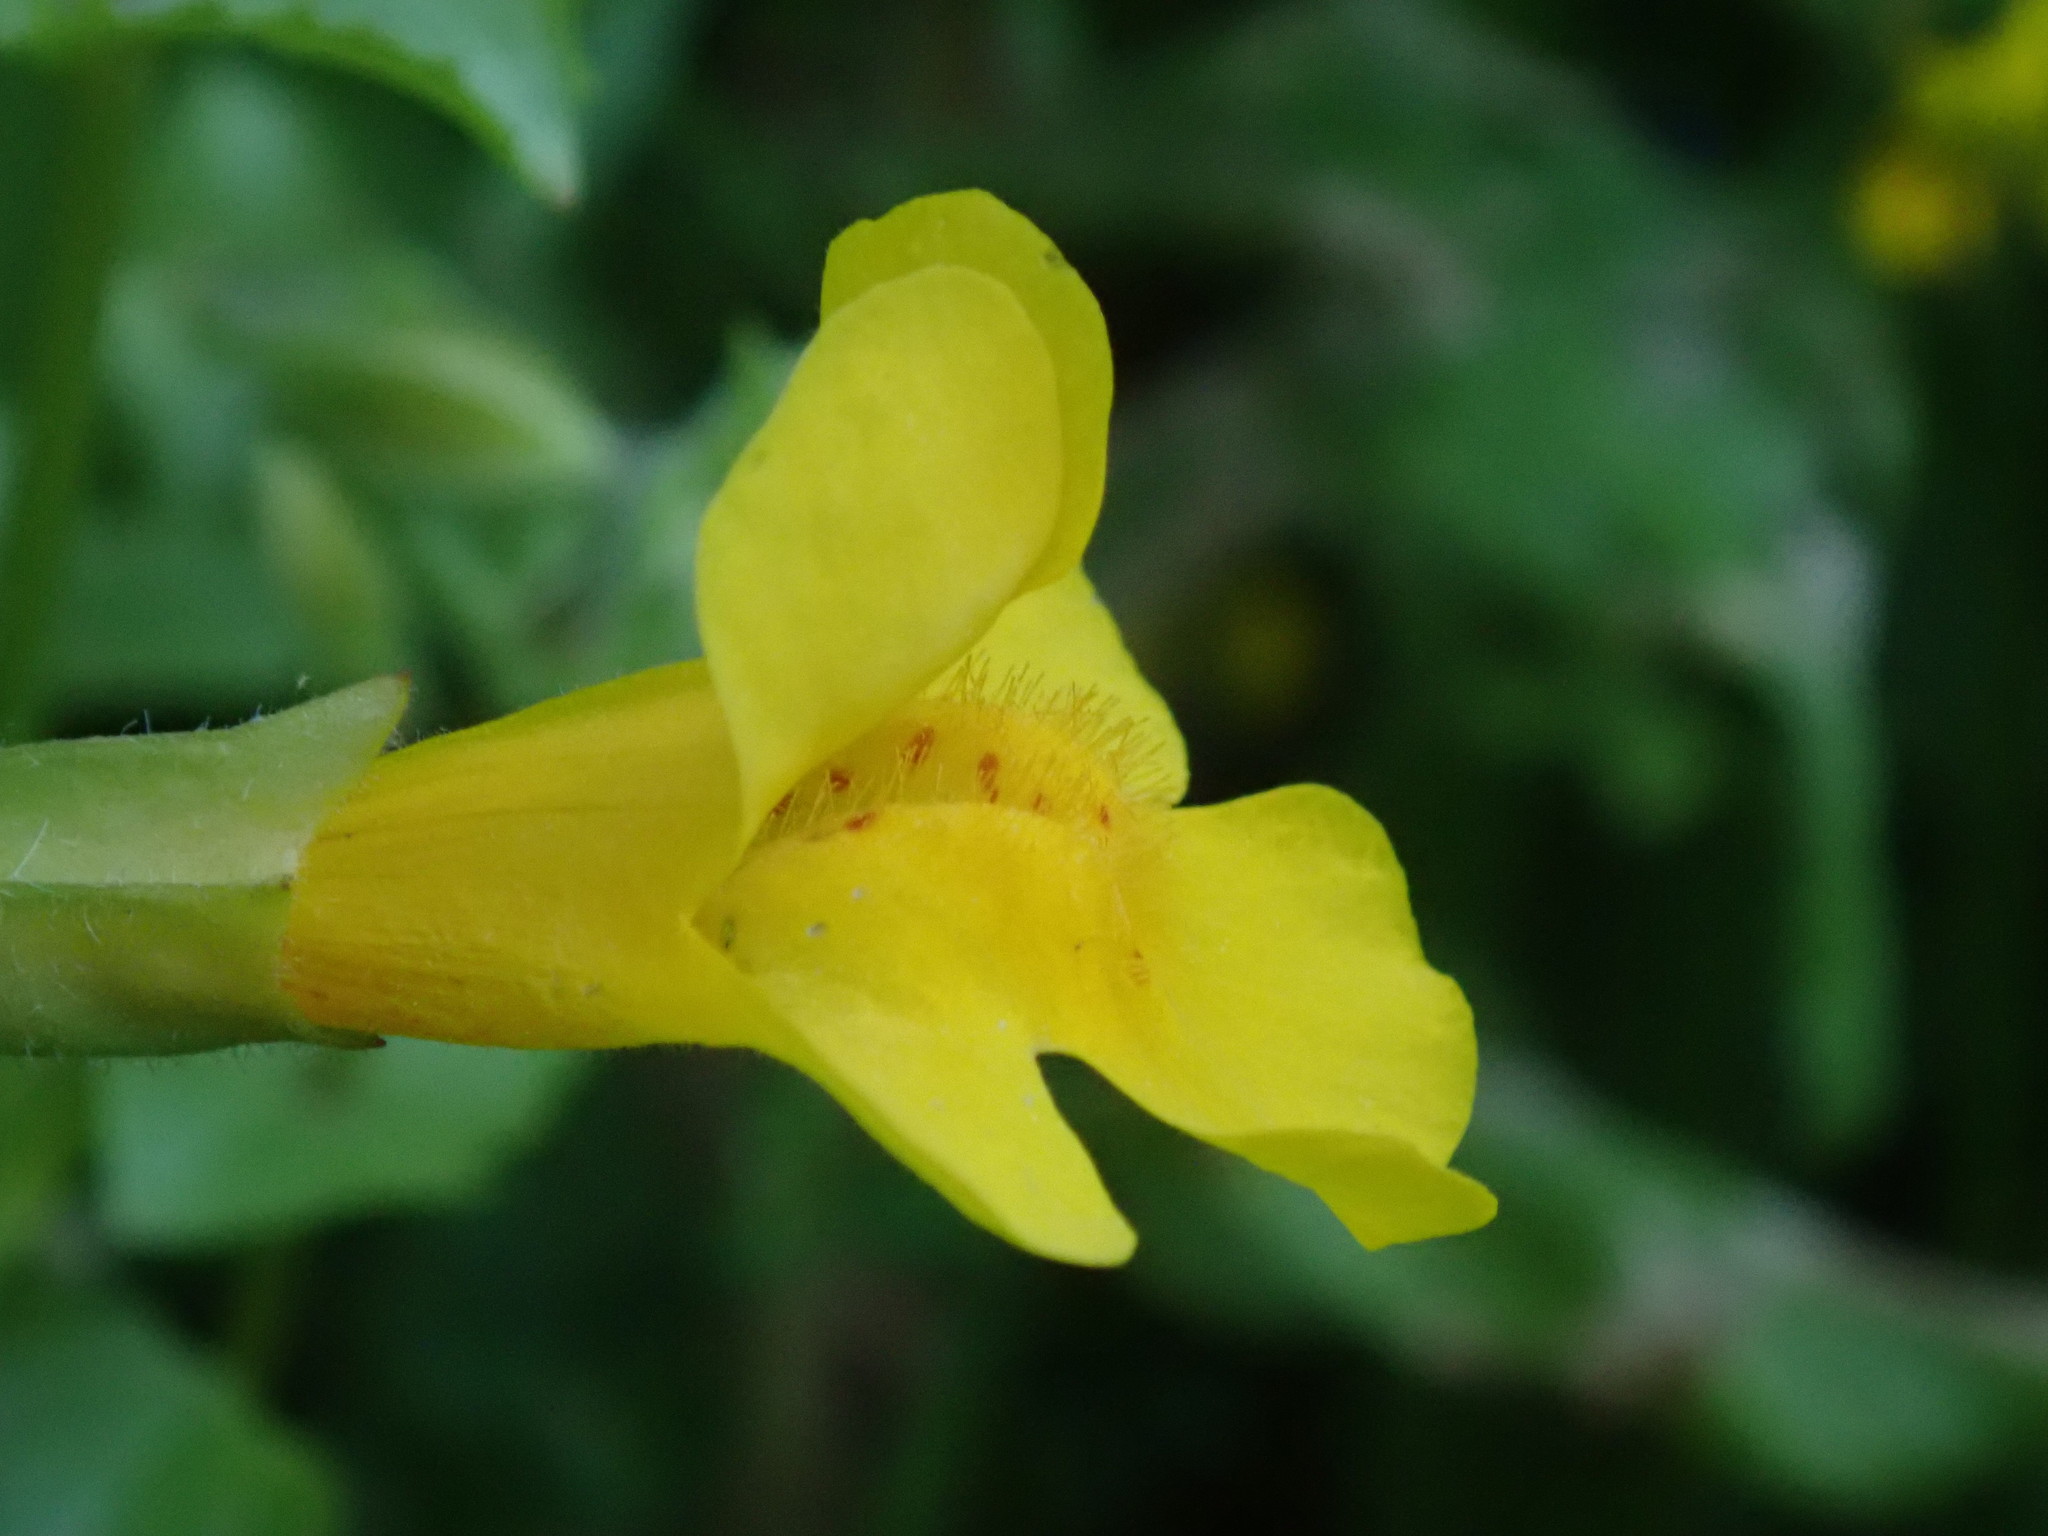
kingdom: Plantae
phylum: Tracheophyta
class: Magnoliopsida
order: Lamiales
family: Phrymaceae
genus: Erythranthe
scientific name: Erythranthe guttata
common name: Monkeyflower
